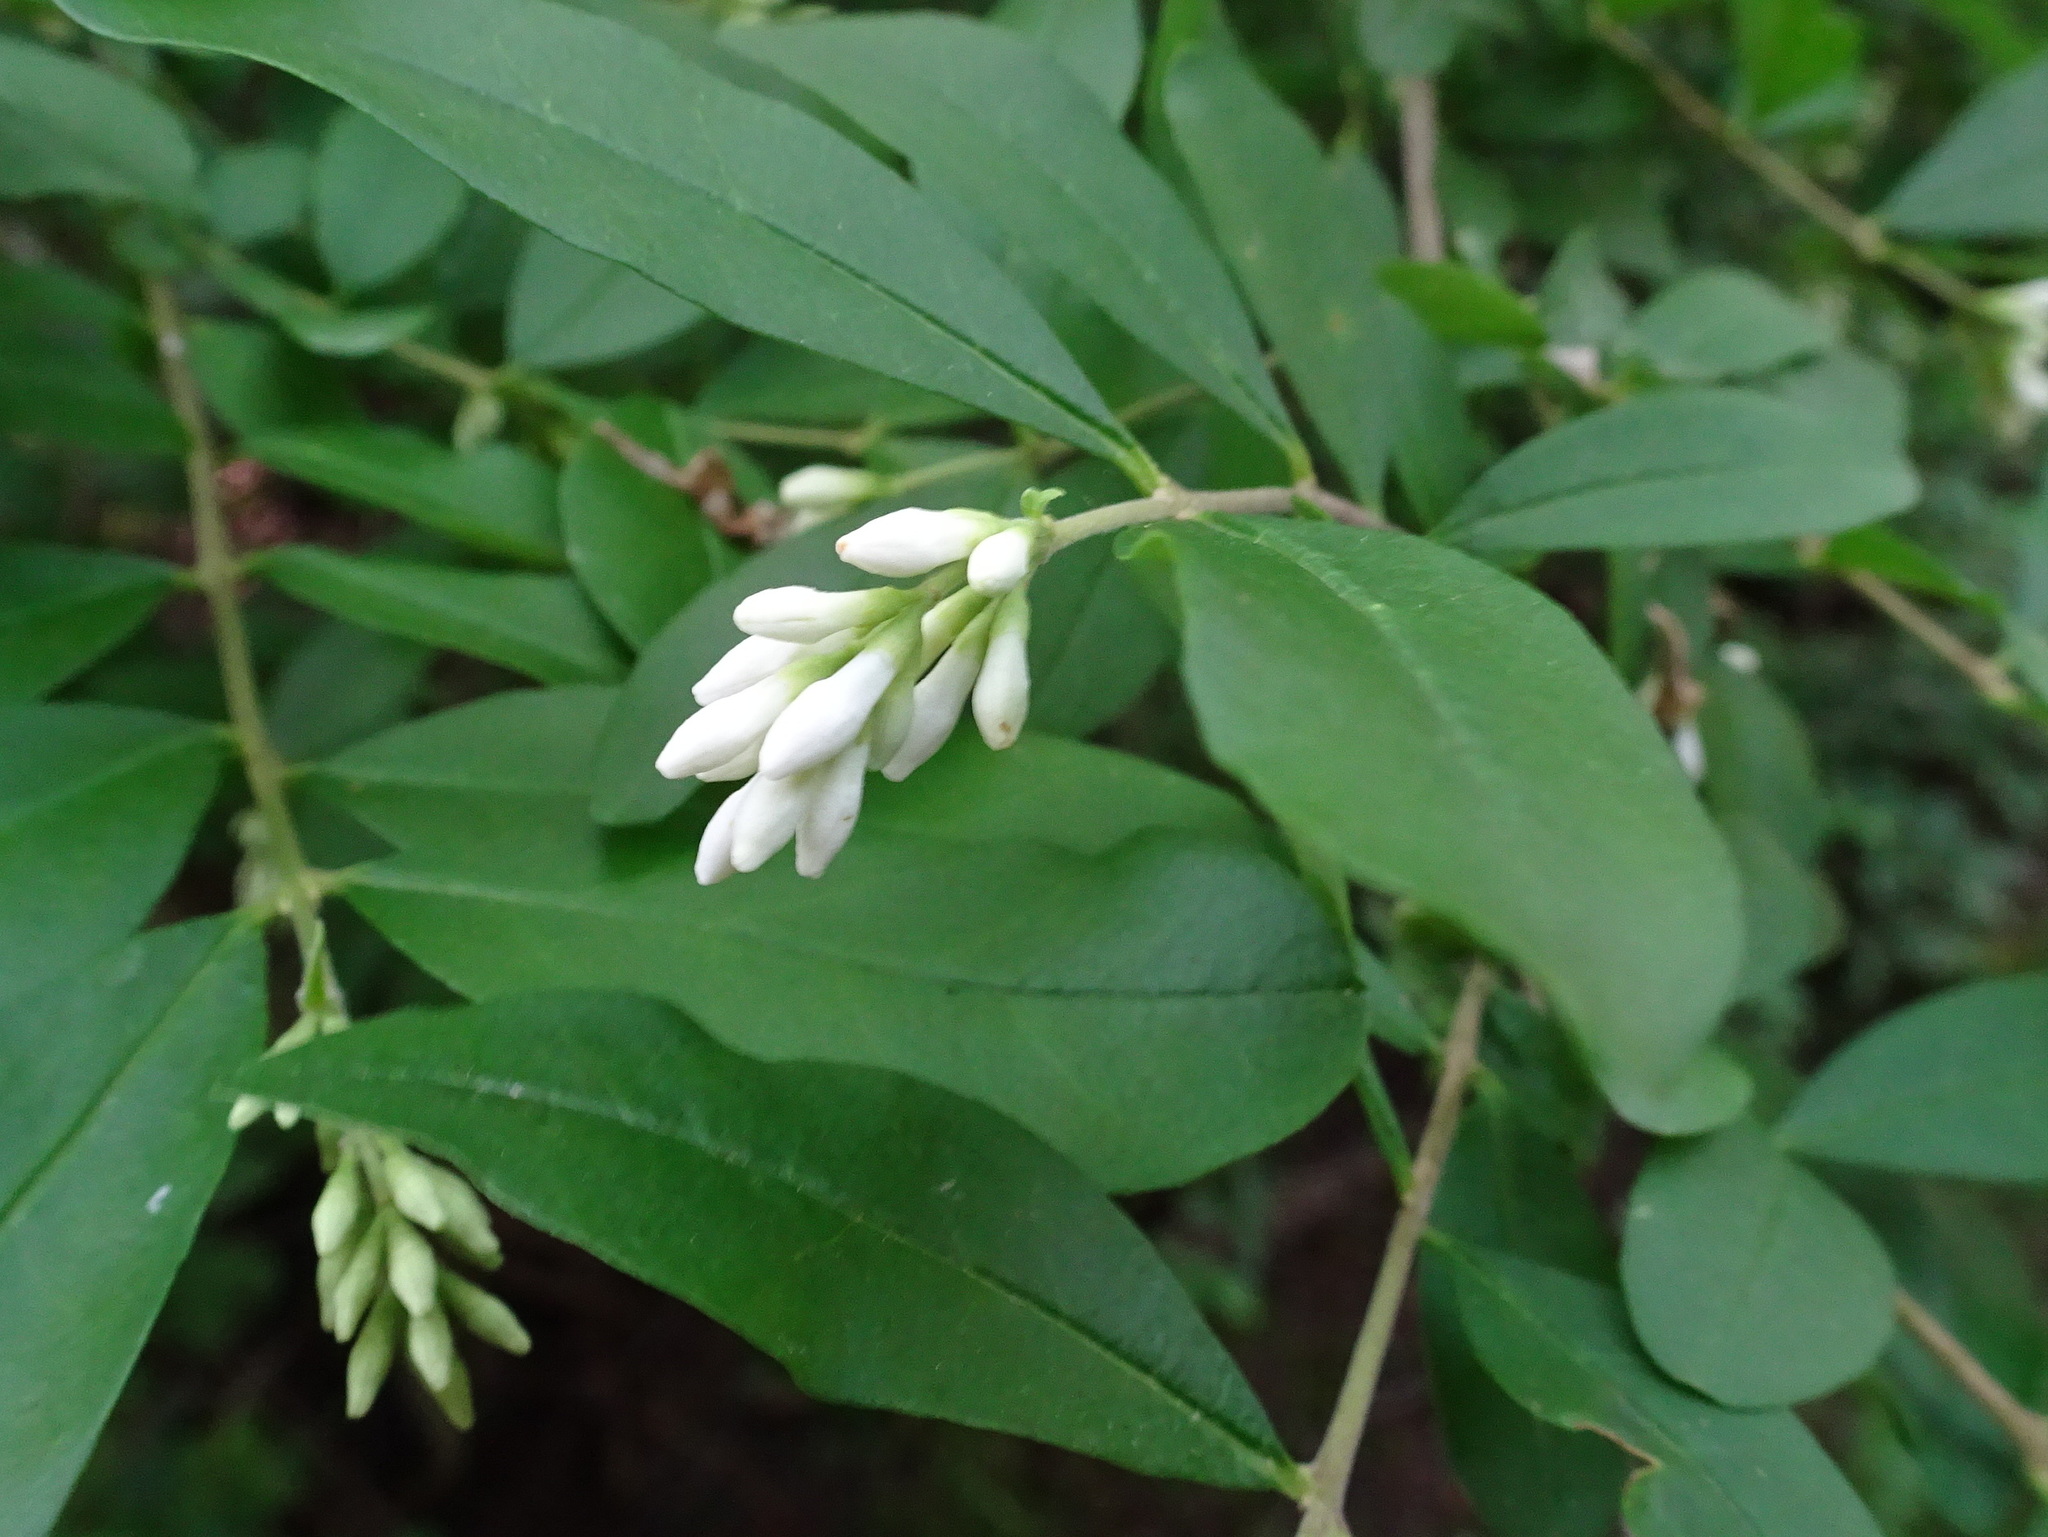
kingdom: Plantae
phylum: Tracheophyta
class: Magnoliopsida
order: Lamiales
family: Oleaceae
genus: Ligustrum
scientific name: Ligustrum obtusifolium
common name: Border privet
